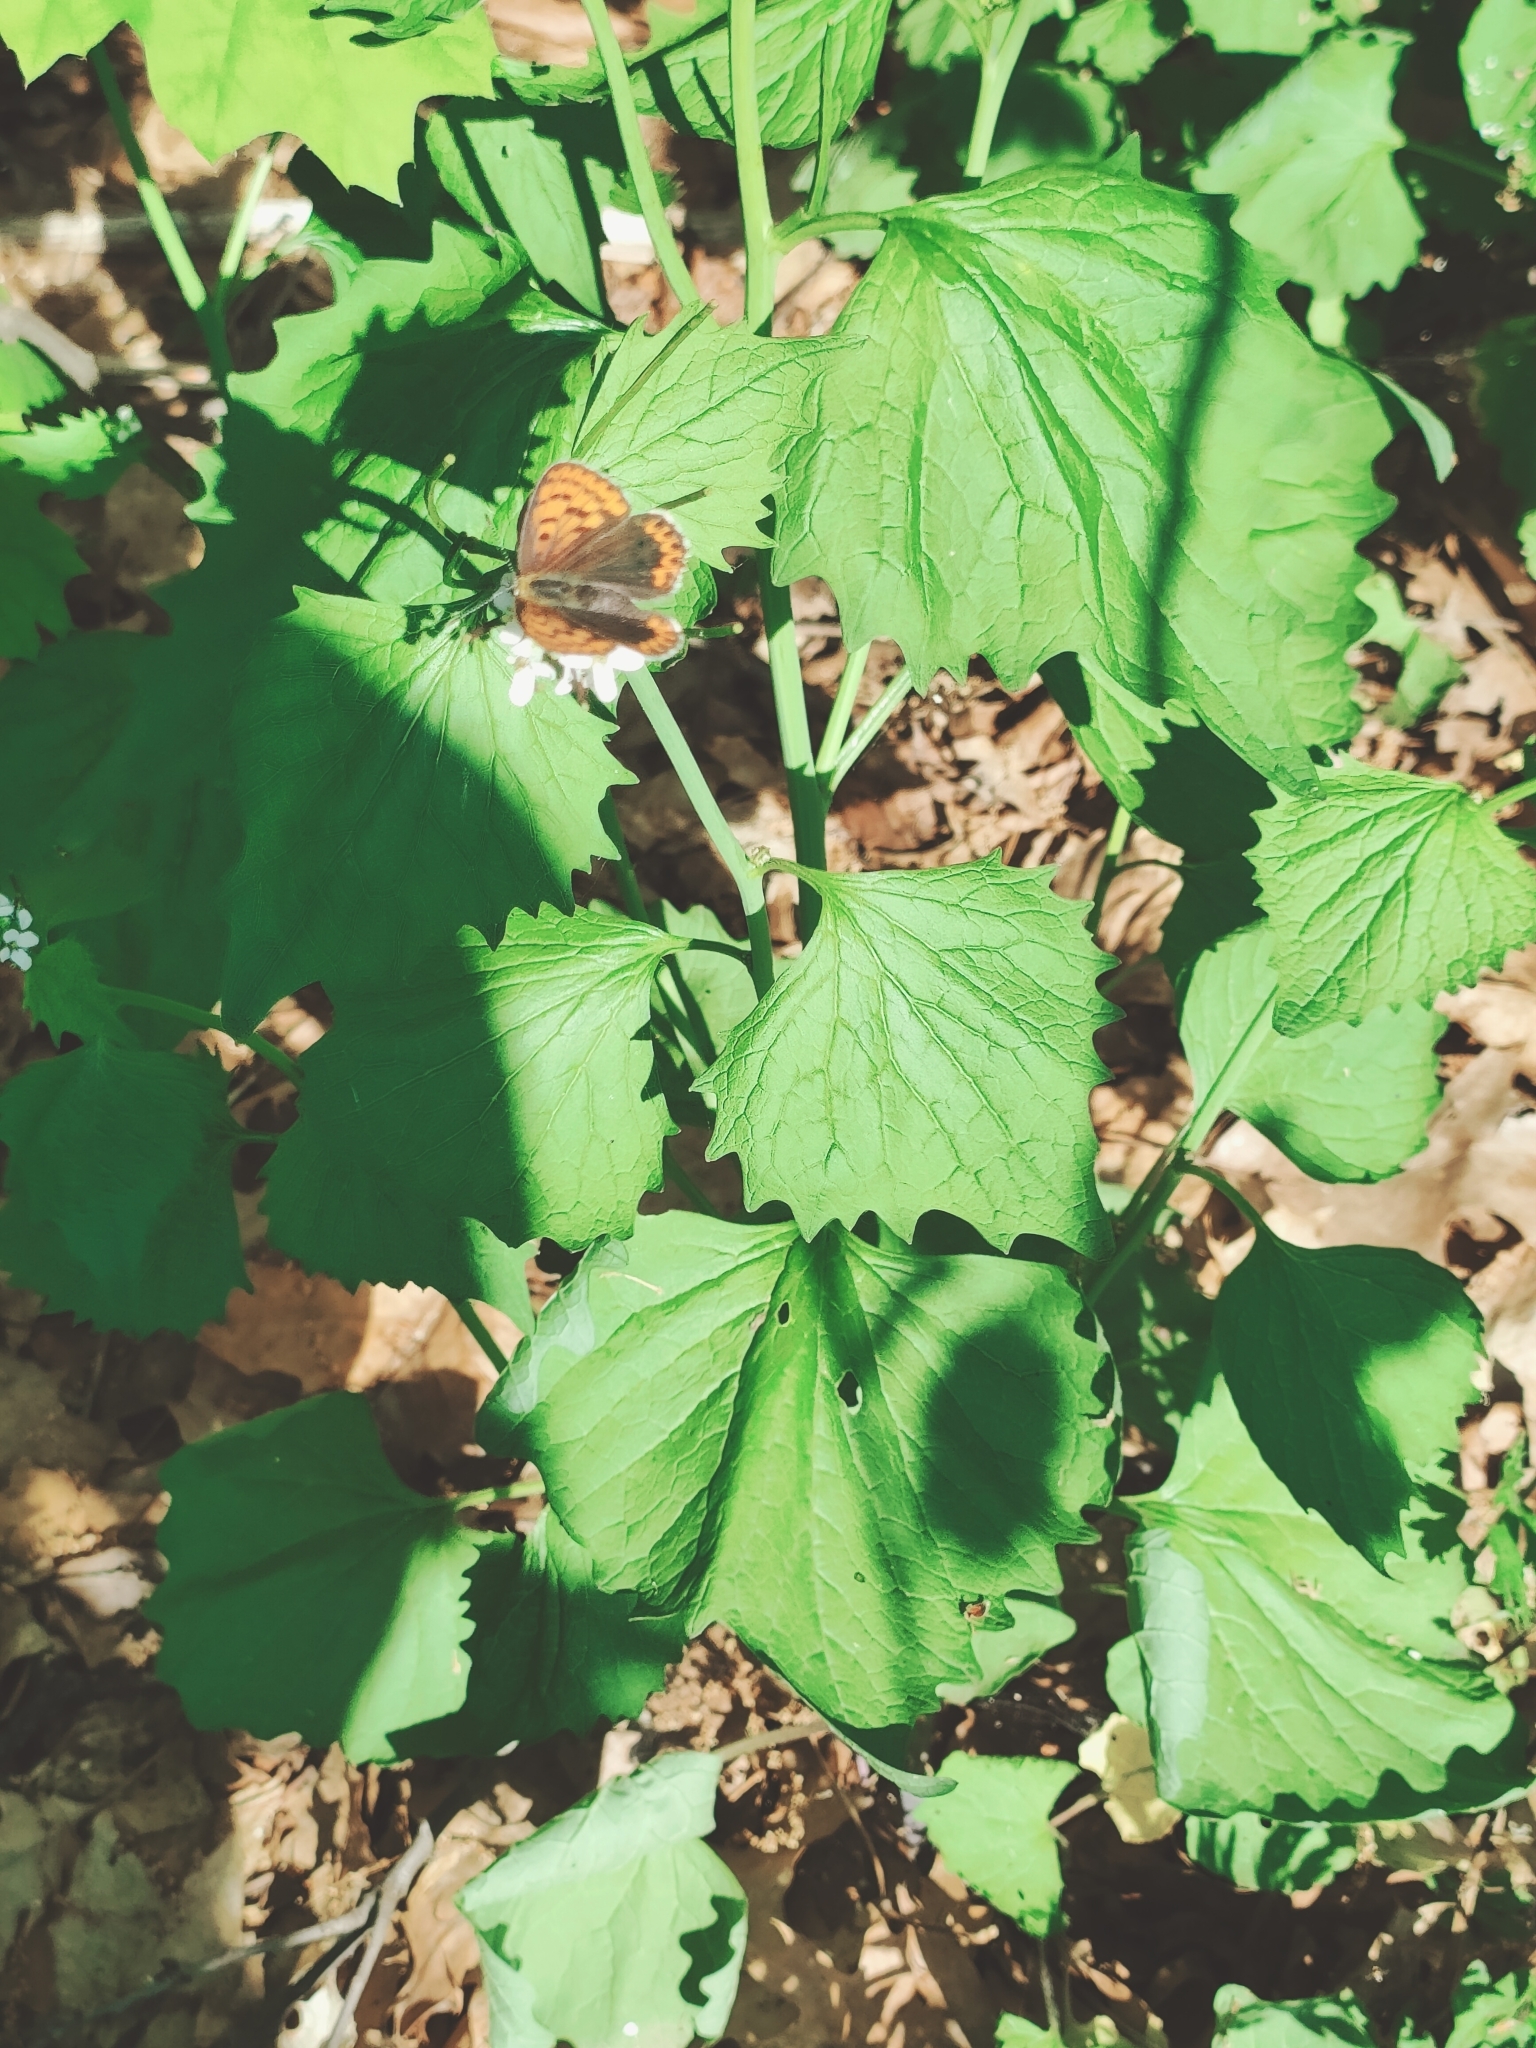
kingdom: Animalia
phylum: Arthropoda
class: Insecta
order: Lepidoptera
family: Lycaenidae
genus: Loweia
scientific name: Loweia tityrus
